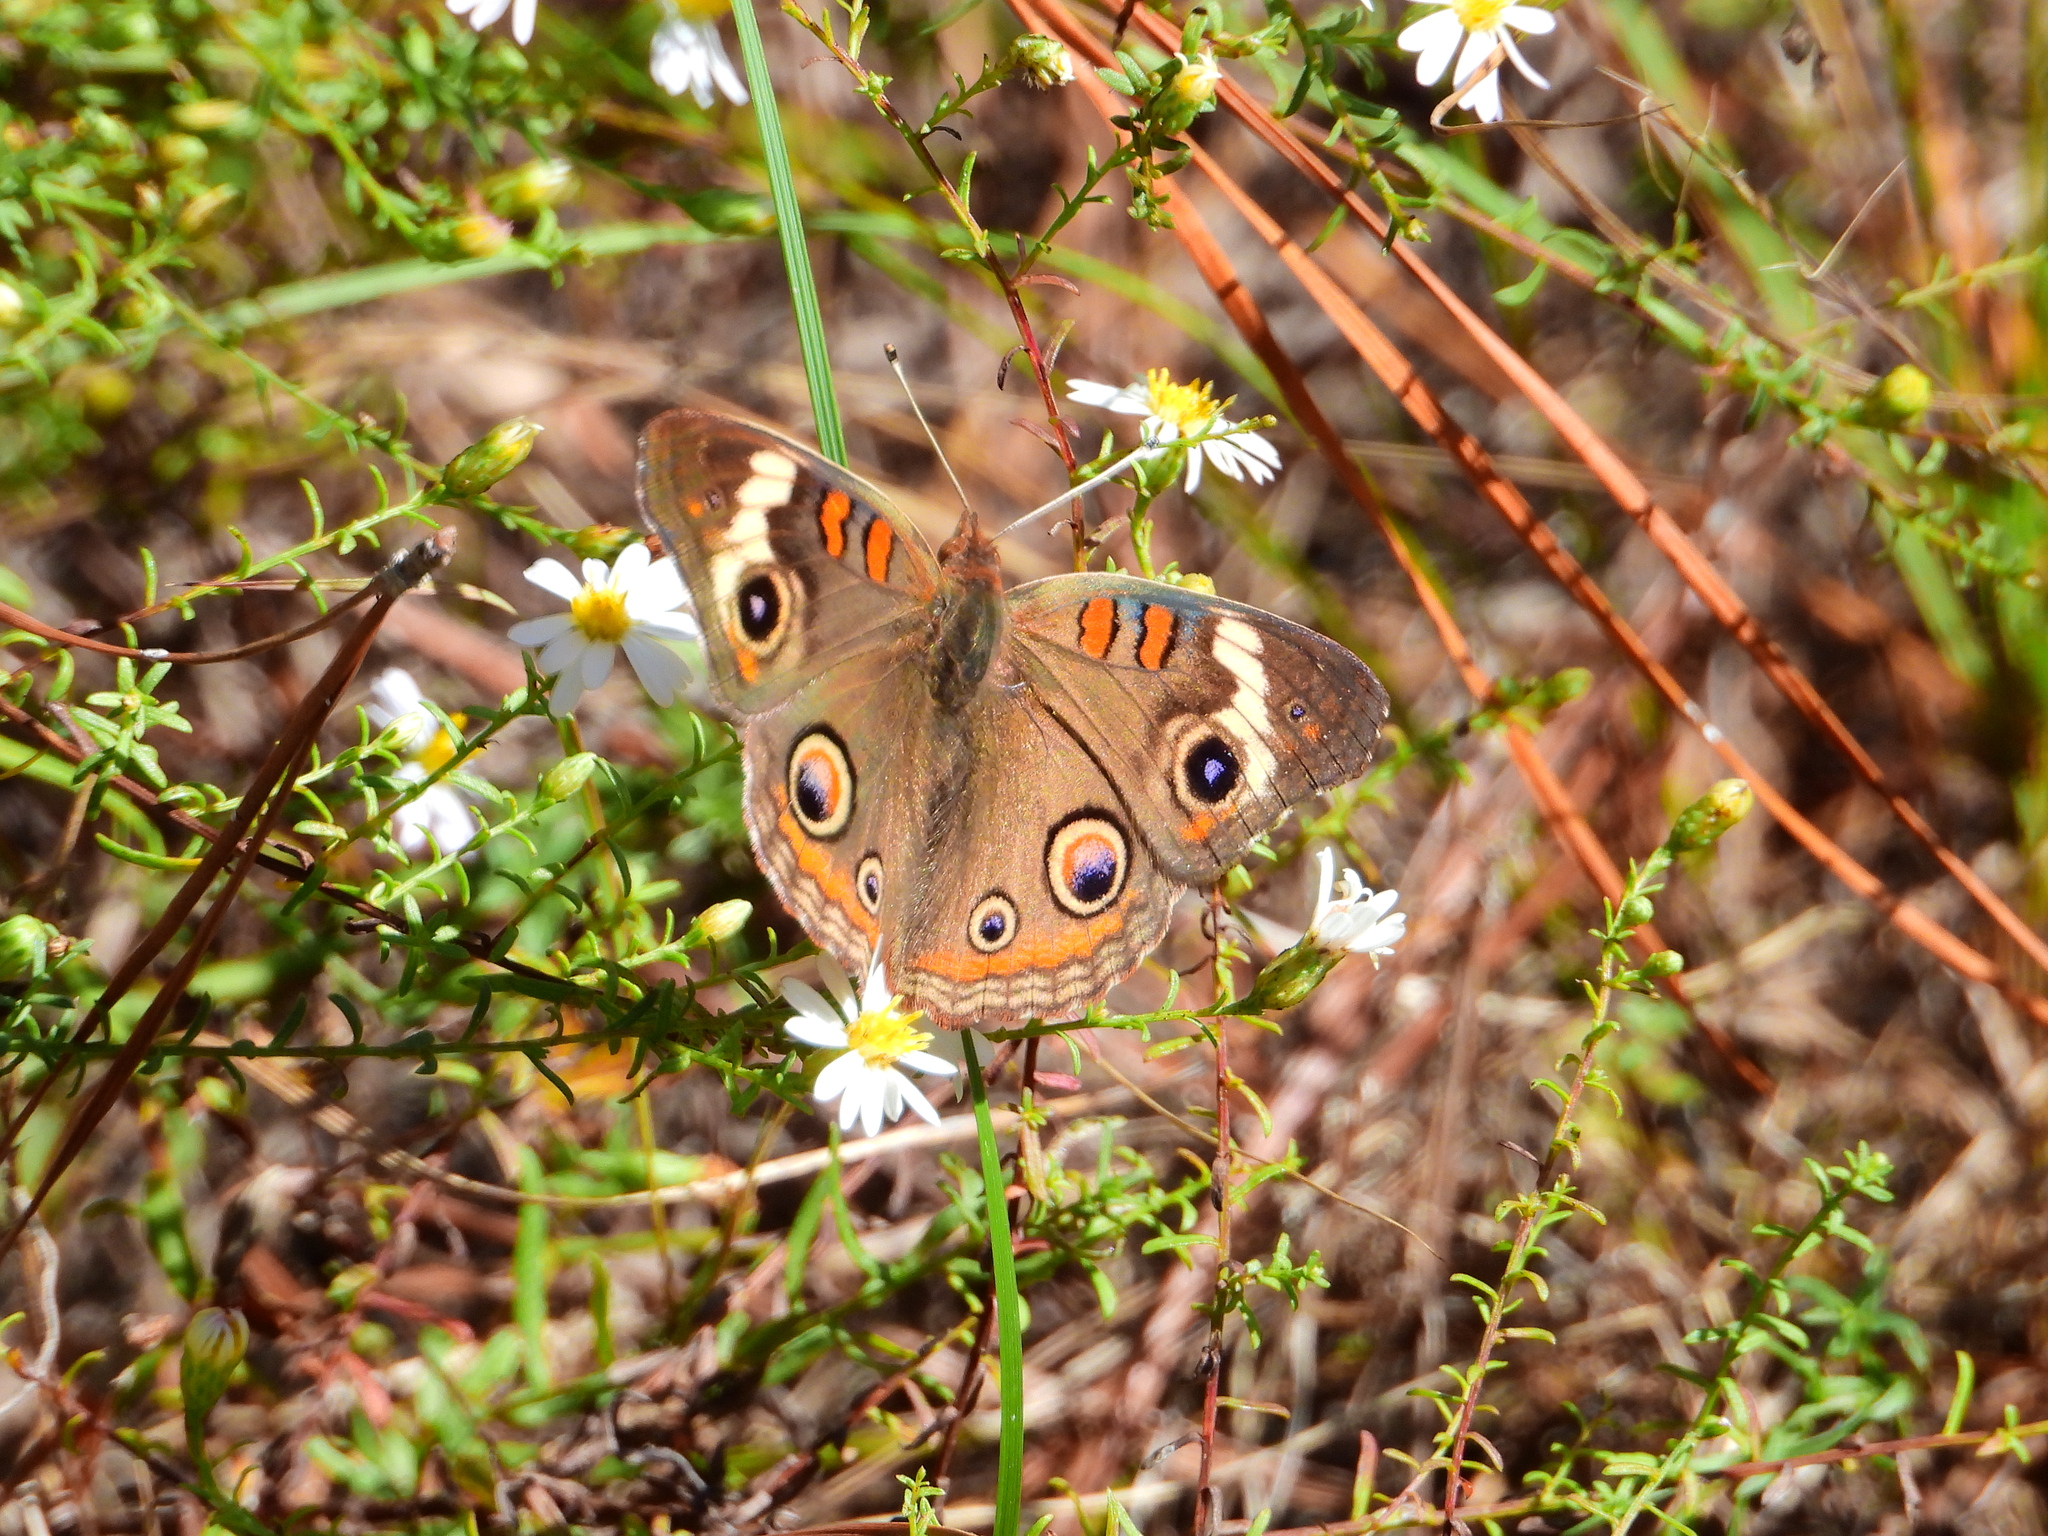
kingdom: Animalia
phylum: Arthropoda
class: Insecta
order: Lepidoptera
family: Nymphalidae
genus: Junonia
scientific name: Junonia coenia
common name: Common buckeye
